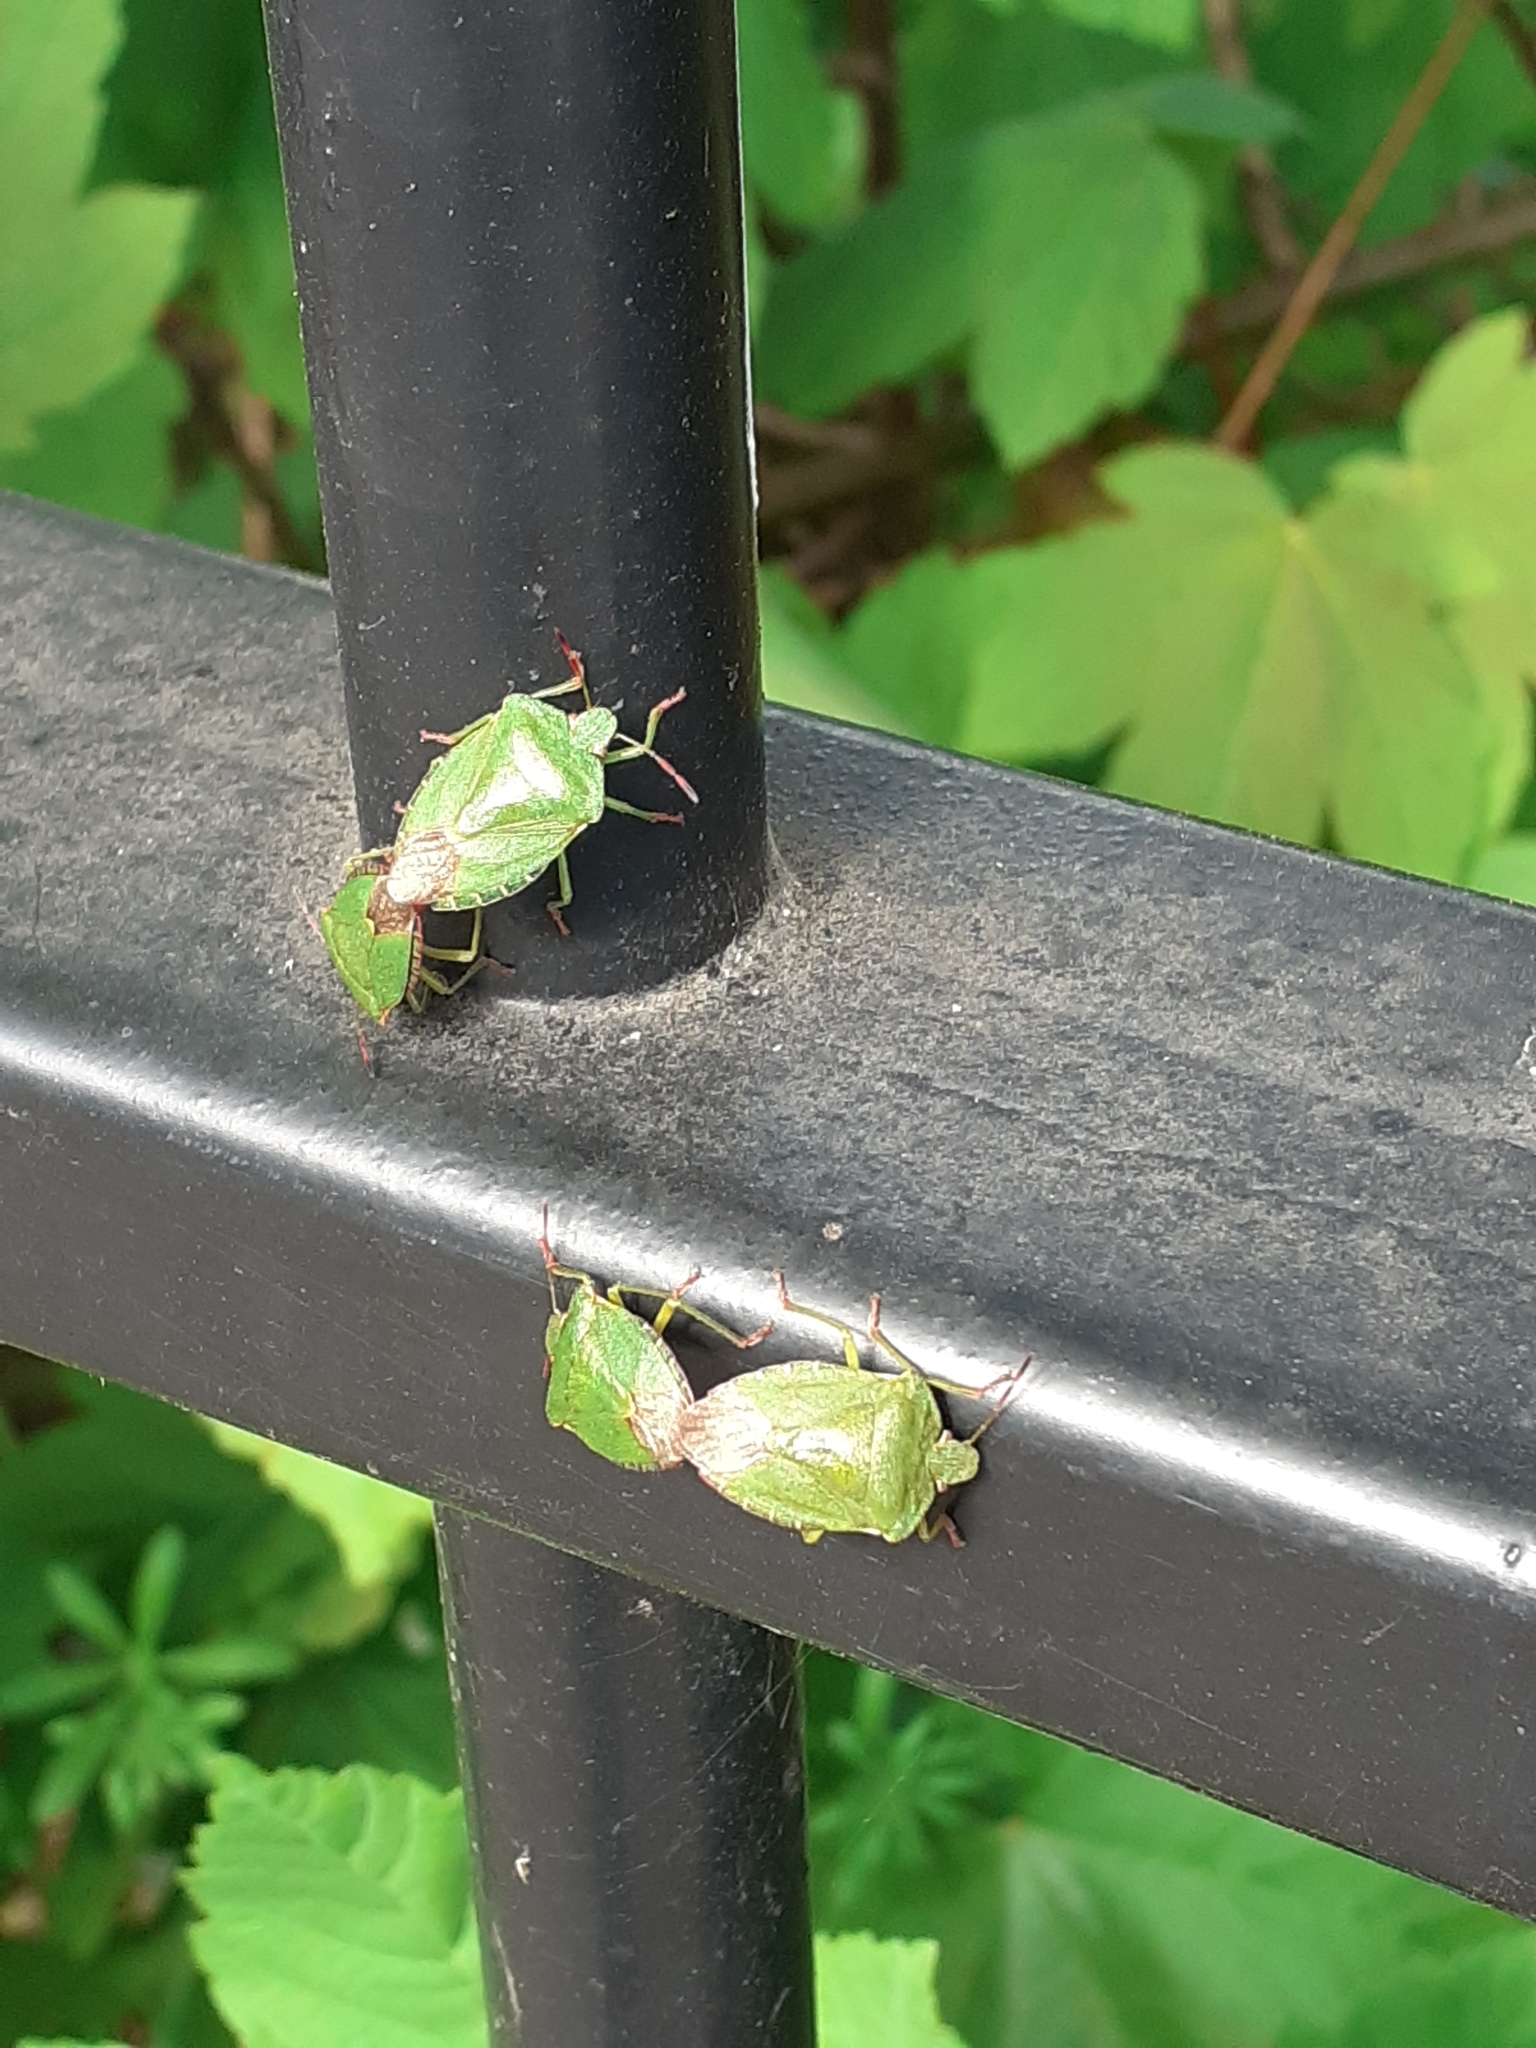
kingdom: Animalia
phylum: Arthropoda
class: Insecta
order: Hemiptera
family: Pentatomidae
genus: Palomena
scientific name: Palomena prasina
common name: Green shieldbug
